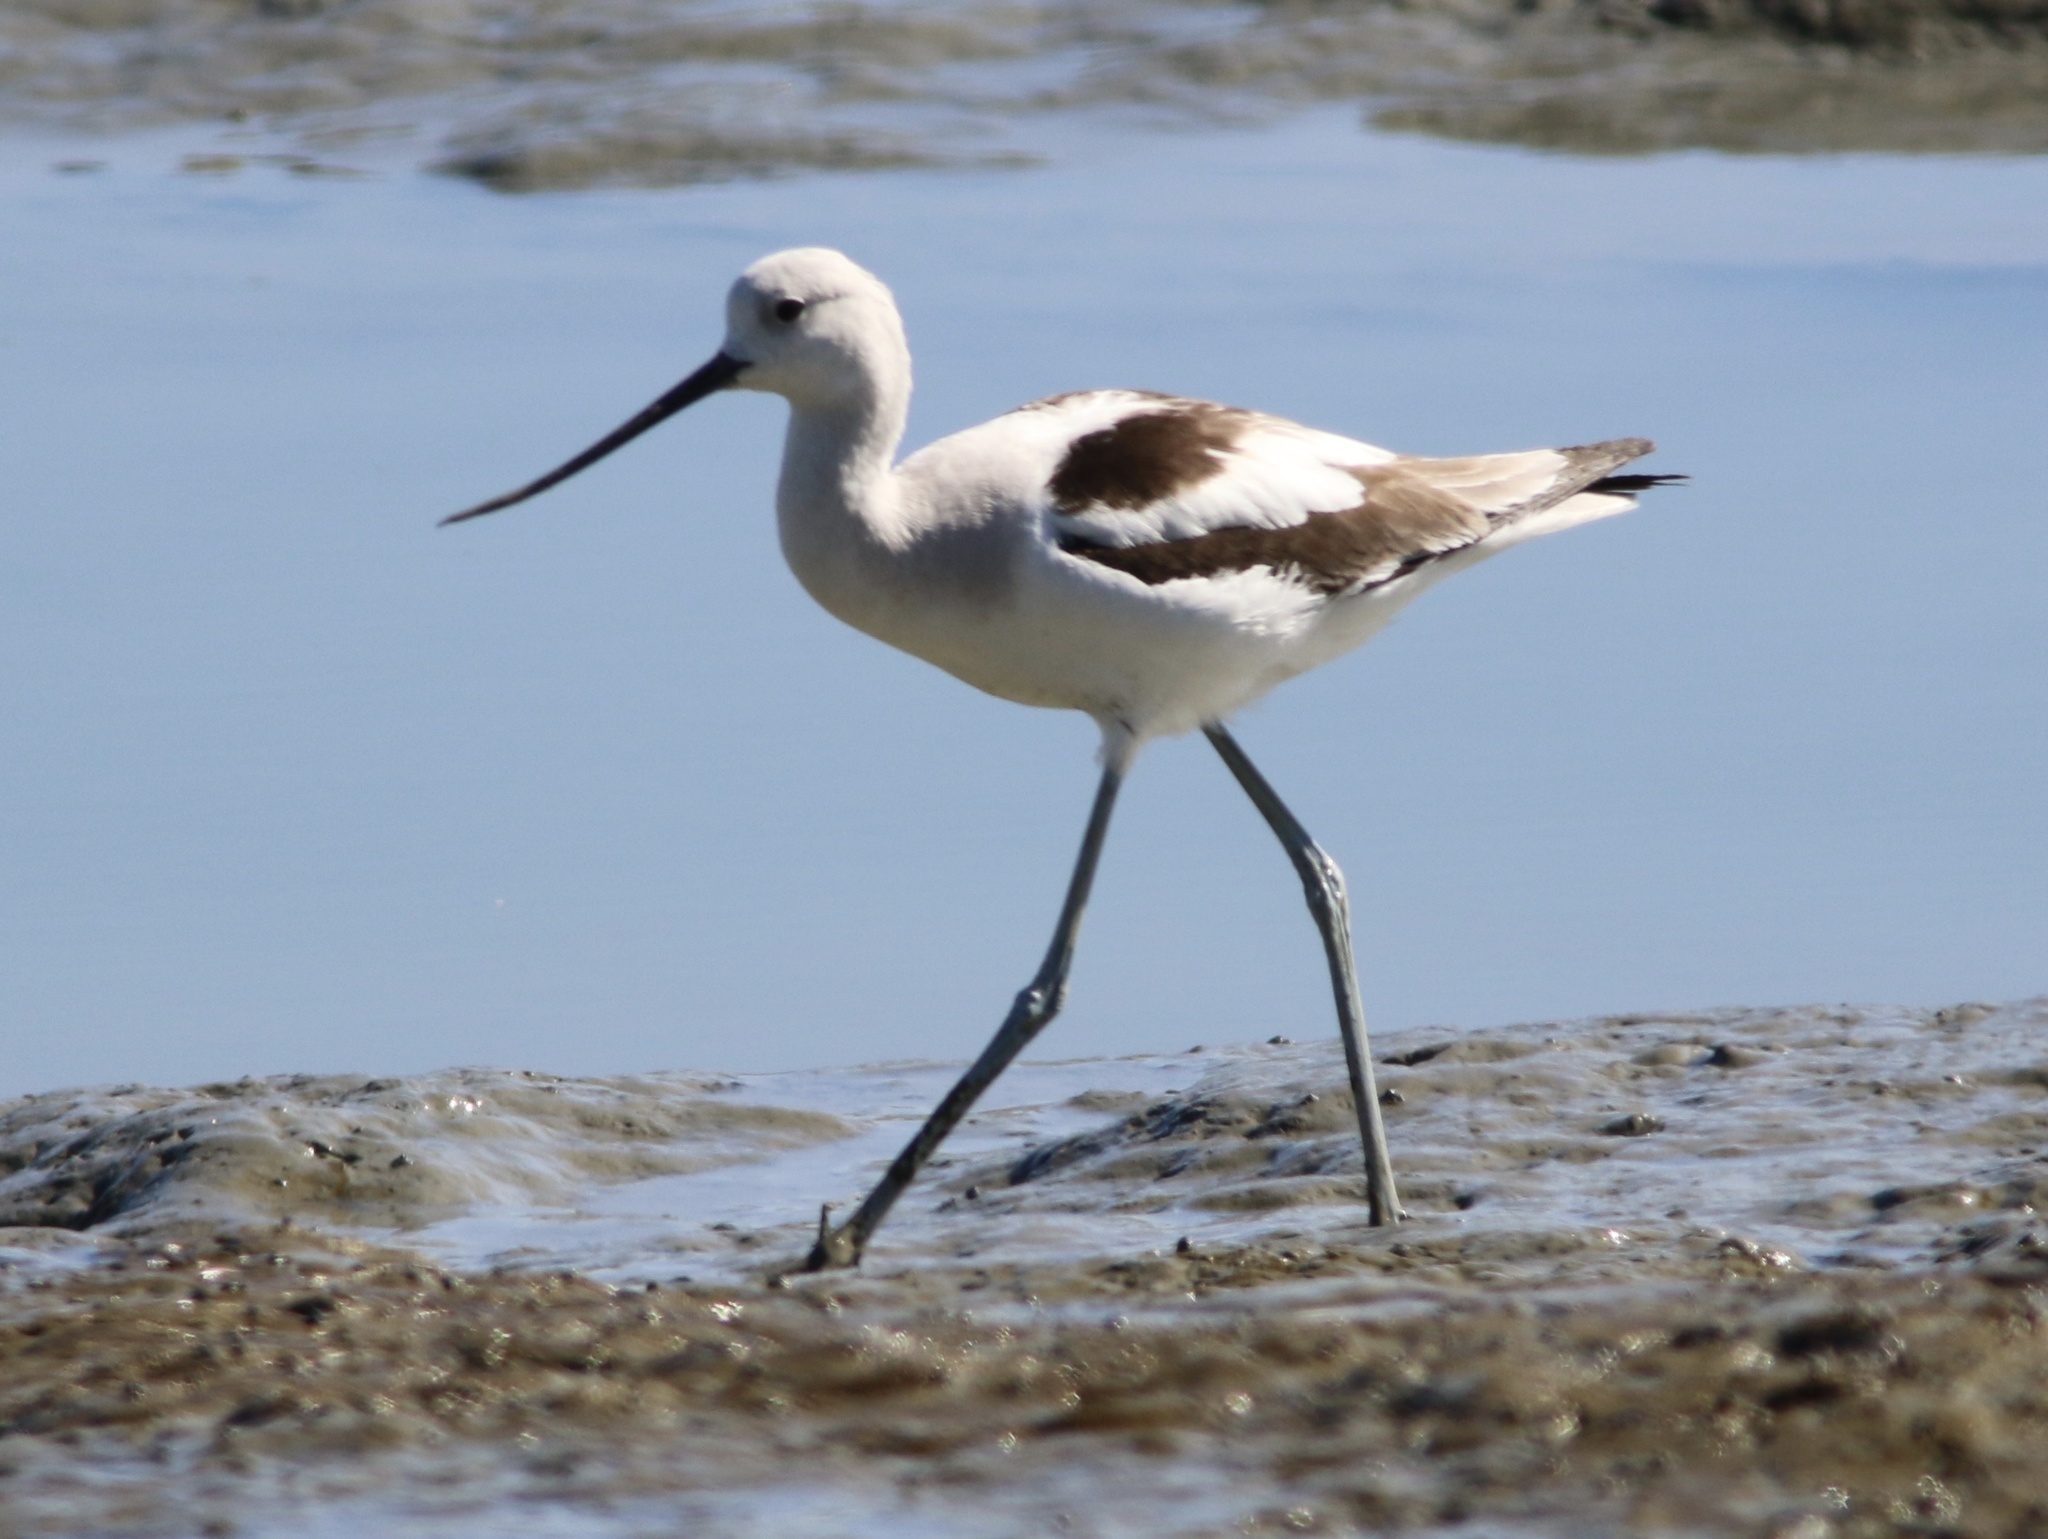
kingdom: Animalia
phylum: Chordata
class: Aves
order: Charadriiformes
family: Recurvirostridae
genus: Recurvirostra
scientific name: Recurvirostra americana
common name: American avocet
